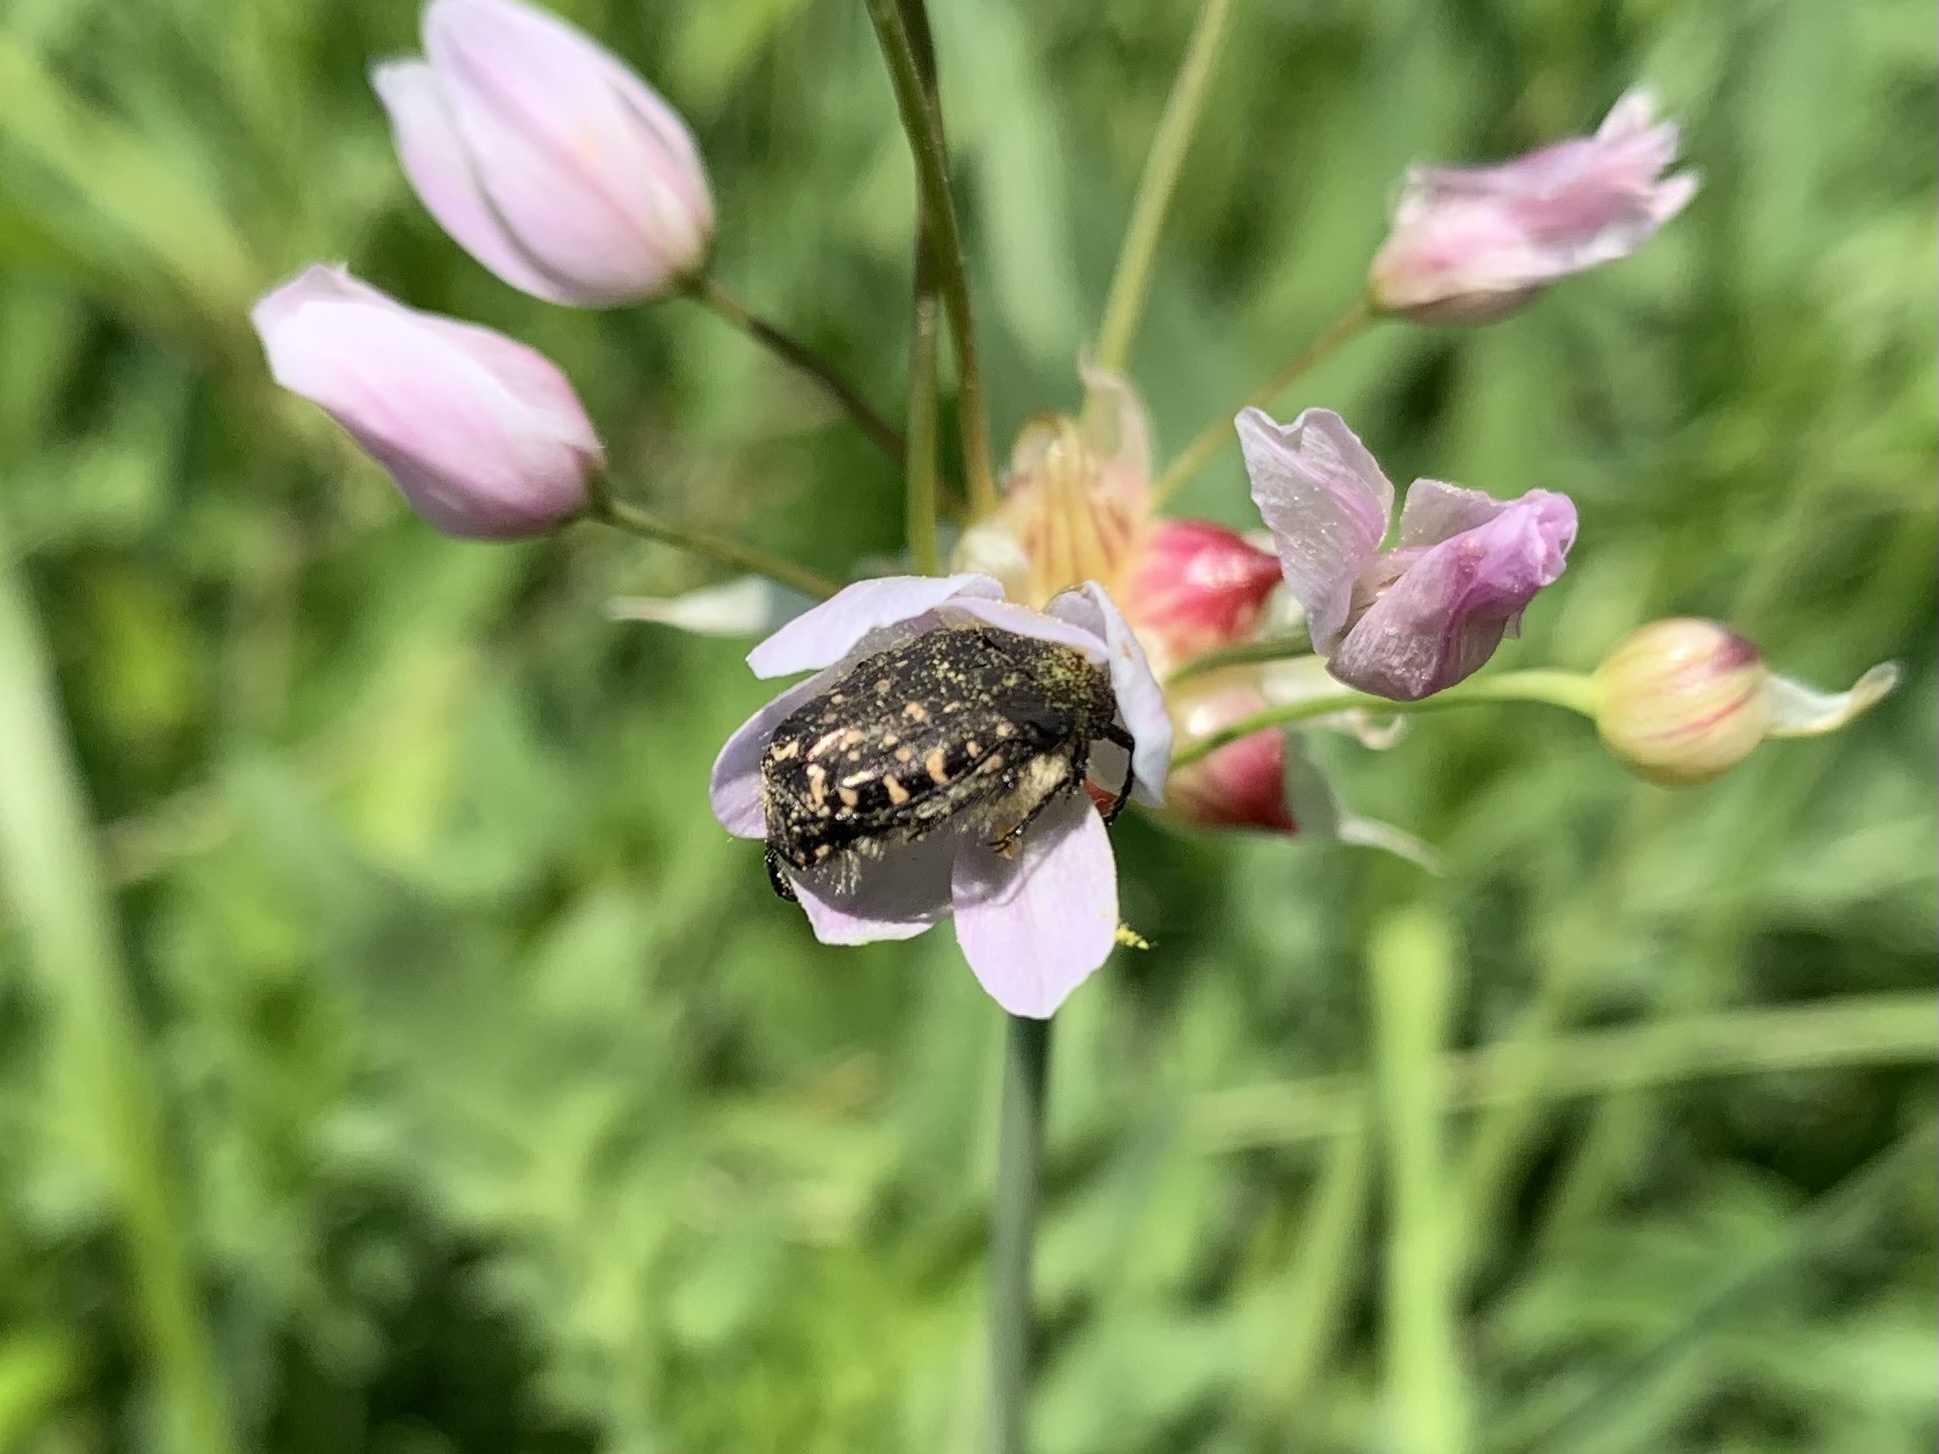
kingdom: Animalia
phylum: Arthropoda
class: Insecta
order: Coleoptera
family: Scarabaeidae
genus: Oxythyrea
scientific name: Oxythyrea funesta
